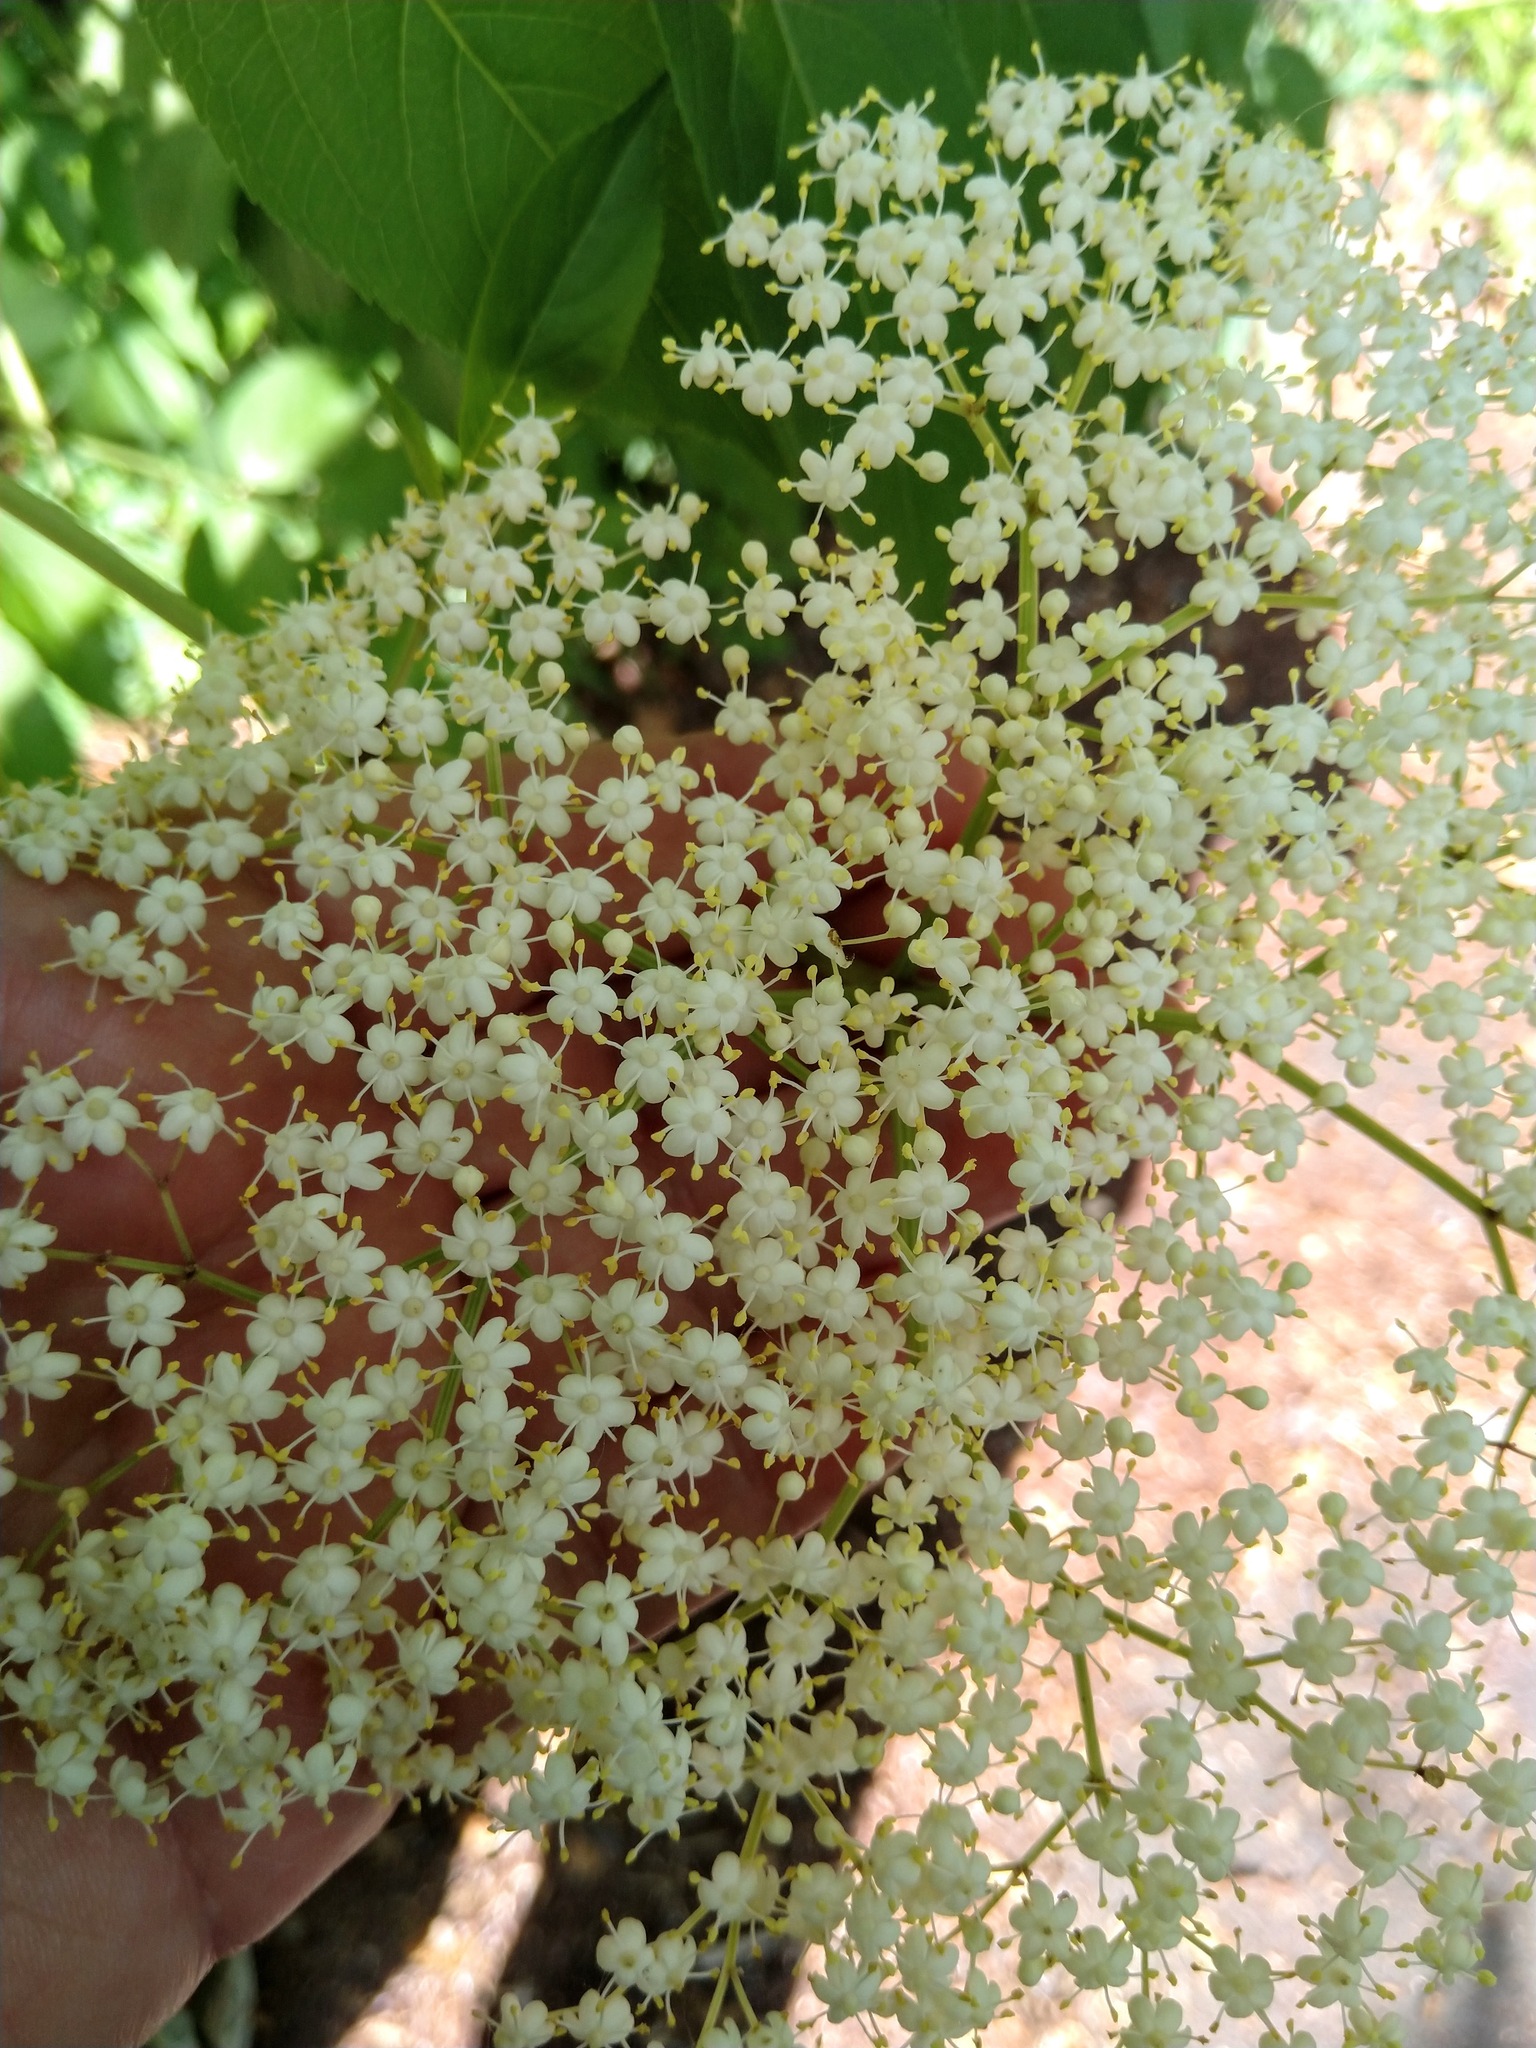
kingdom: Plantae
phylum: Tracheophyta
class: Magnoliopsida
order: Dipsacales
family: Viburnaceae
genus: Sambucus
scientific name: Sambucus canadensis
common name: American elder
